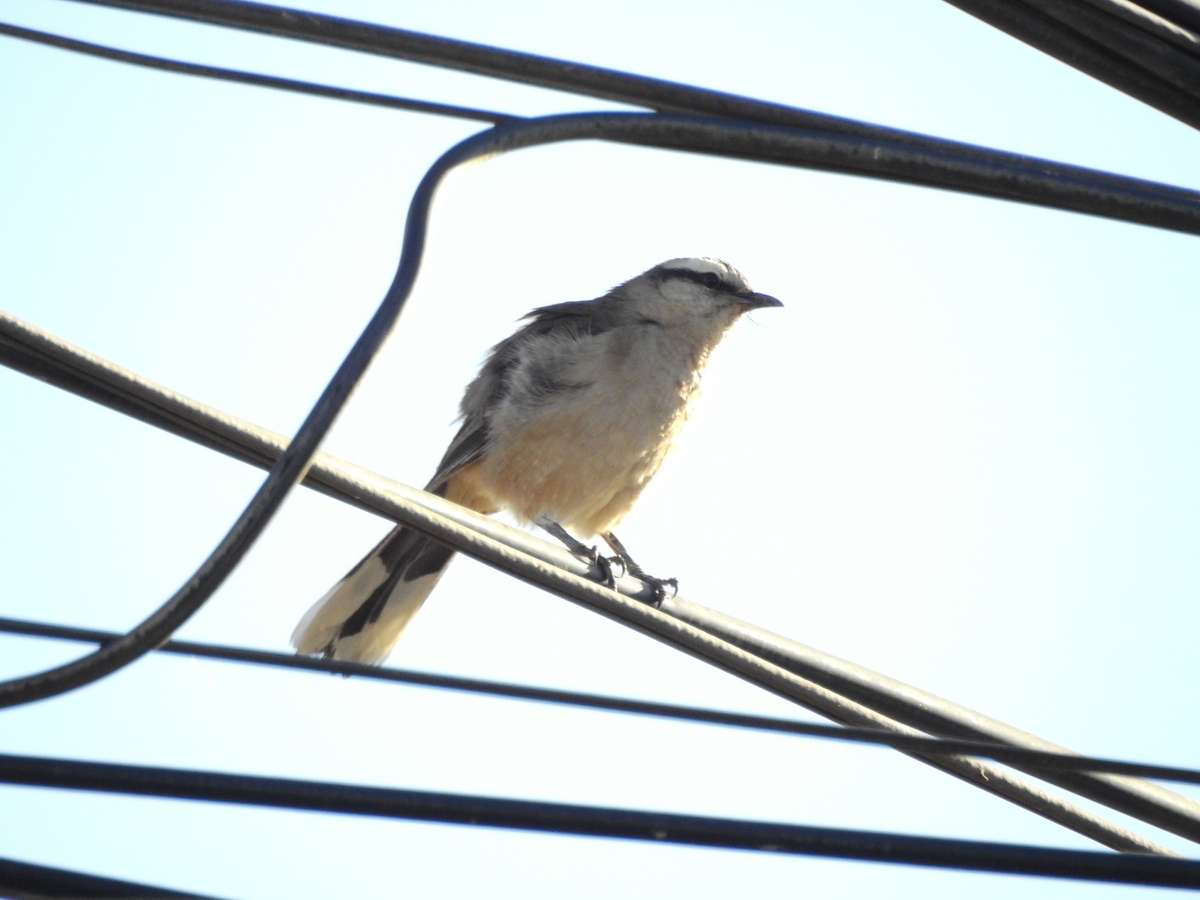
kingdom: Animalia
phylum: Chordata
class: Aves
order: Passeriformes
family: Mimidae
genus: Mimus
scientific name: Mimus saturninus
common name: Chalk-browed mockingbird
